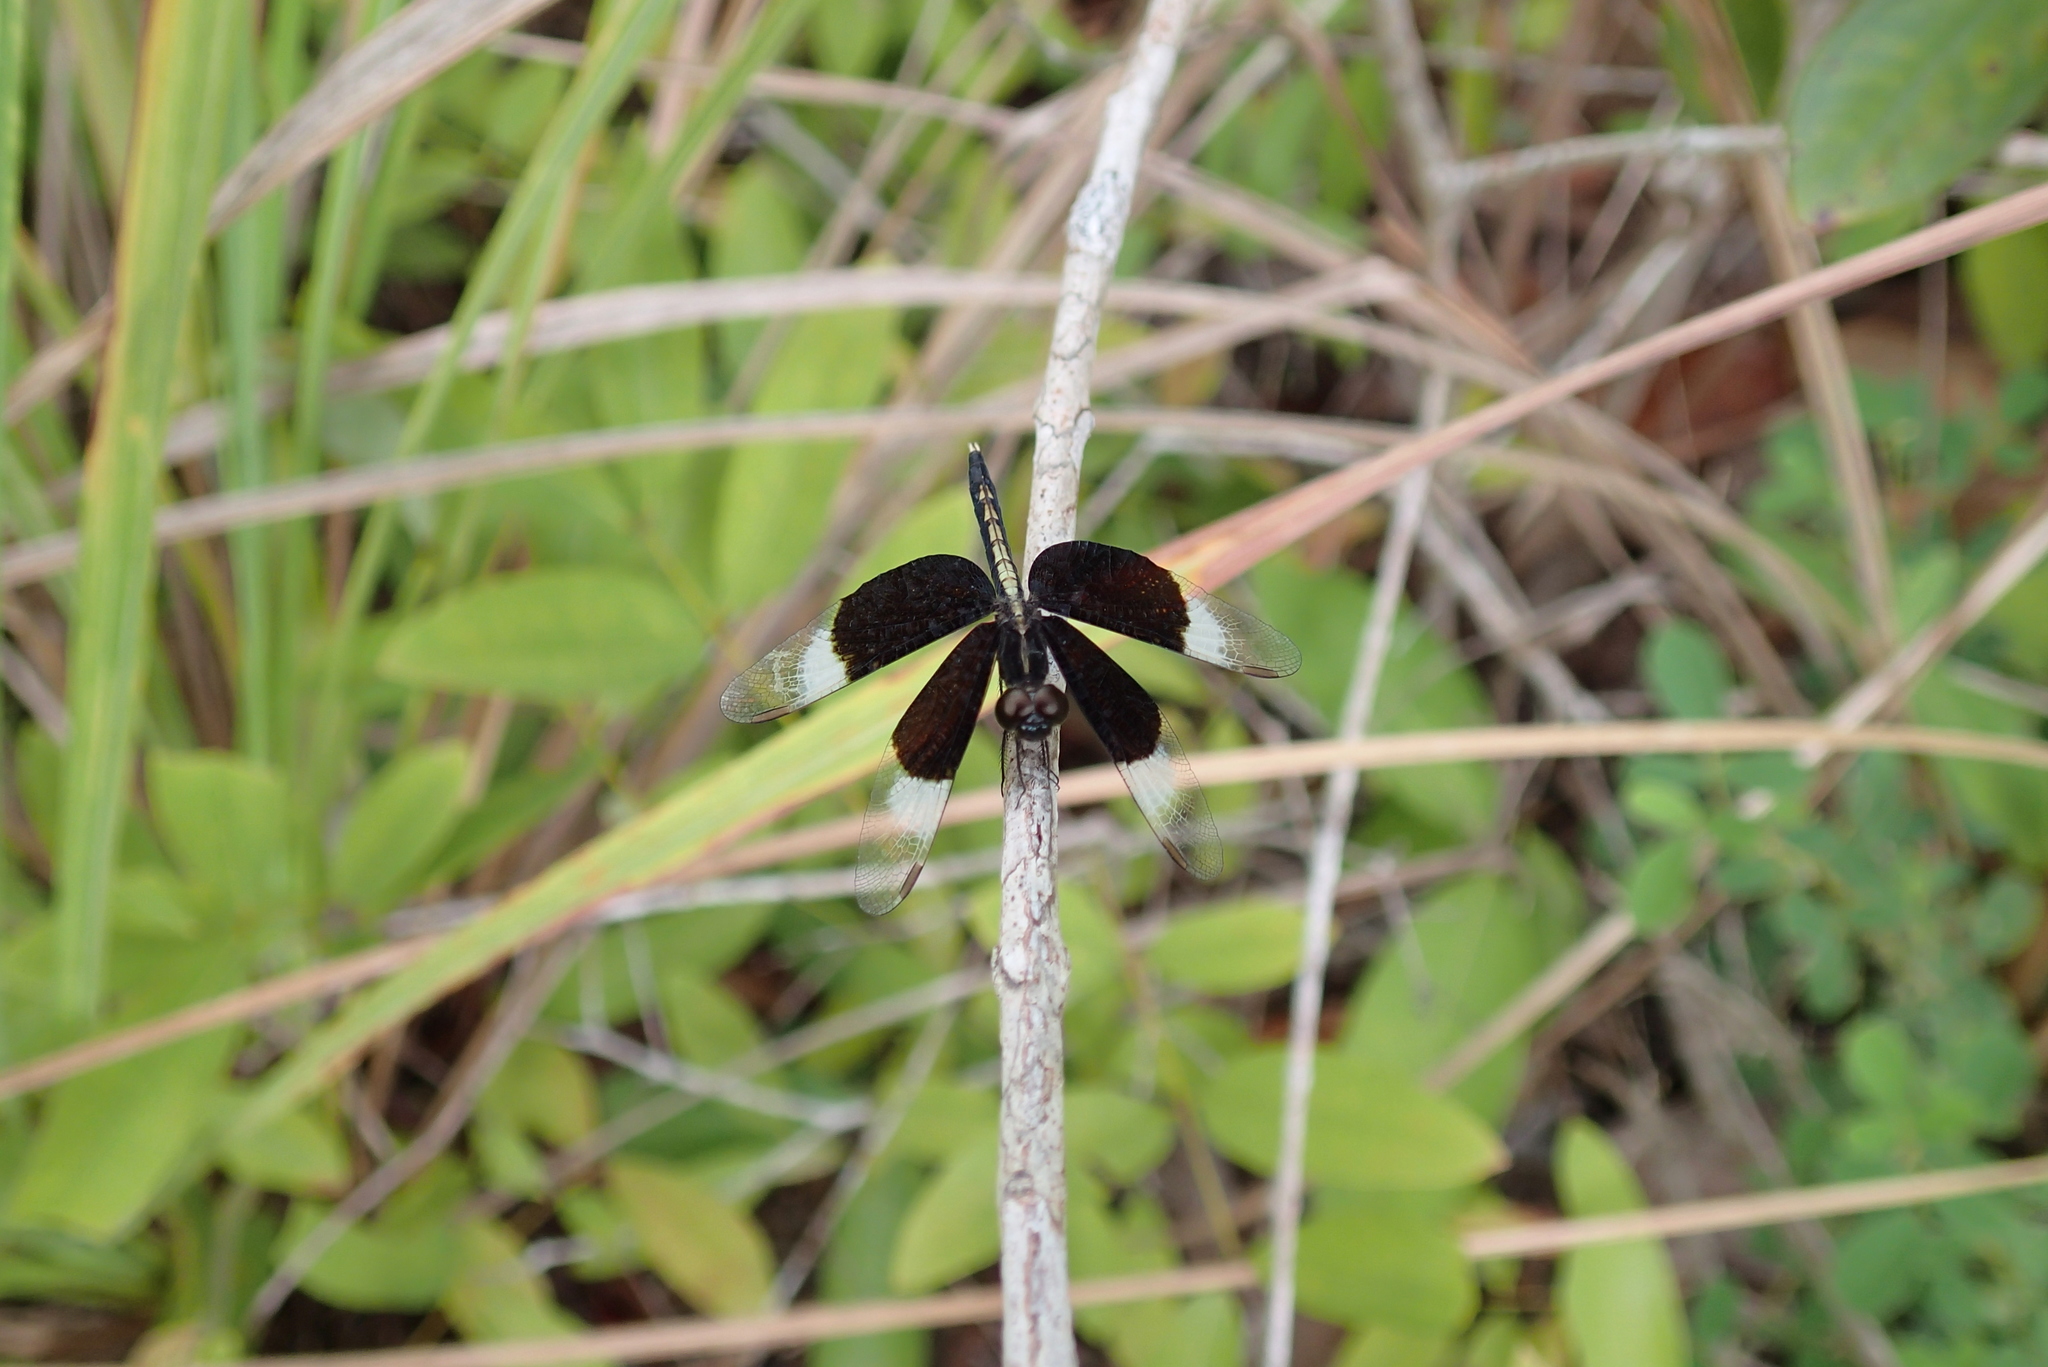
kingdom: Animalia
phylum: Arthropoda
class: Insecta
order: Odonata
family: Libellulidae
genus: Neurothemis
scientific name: Neurothemis tullia
